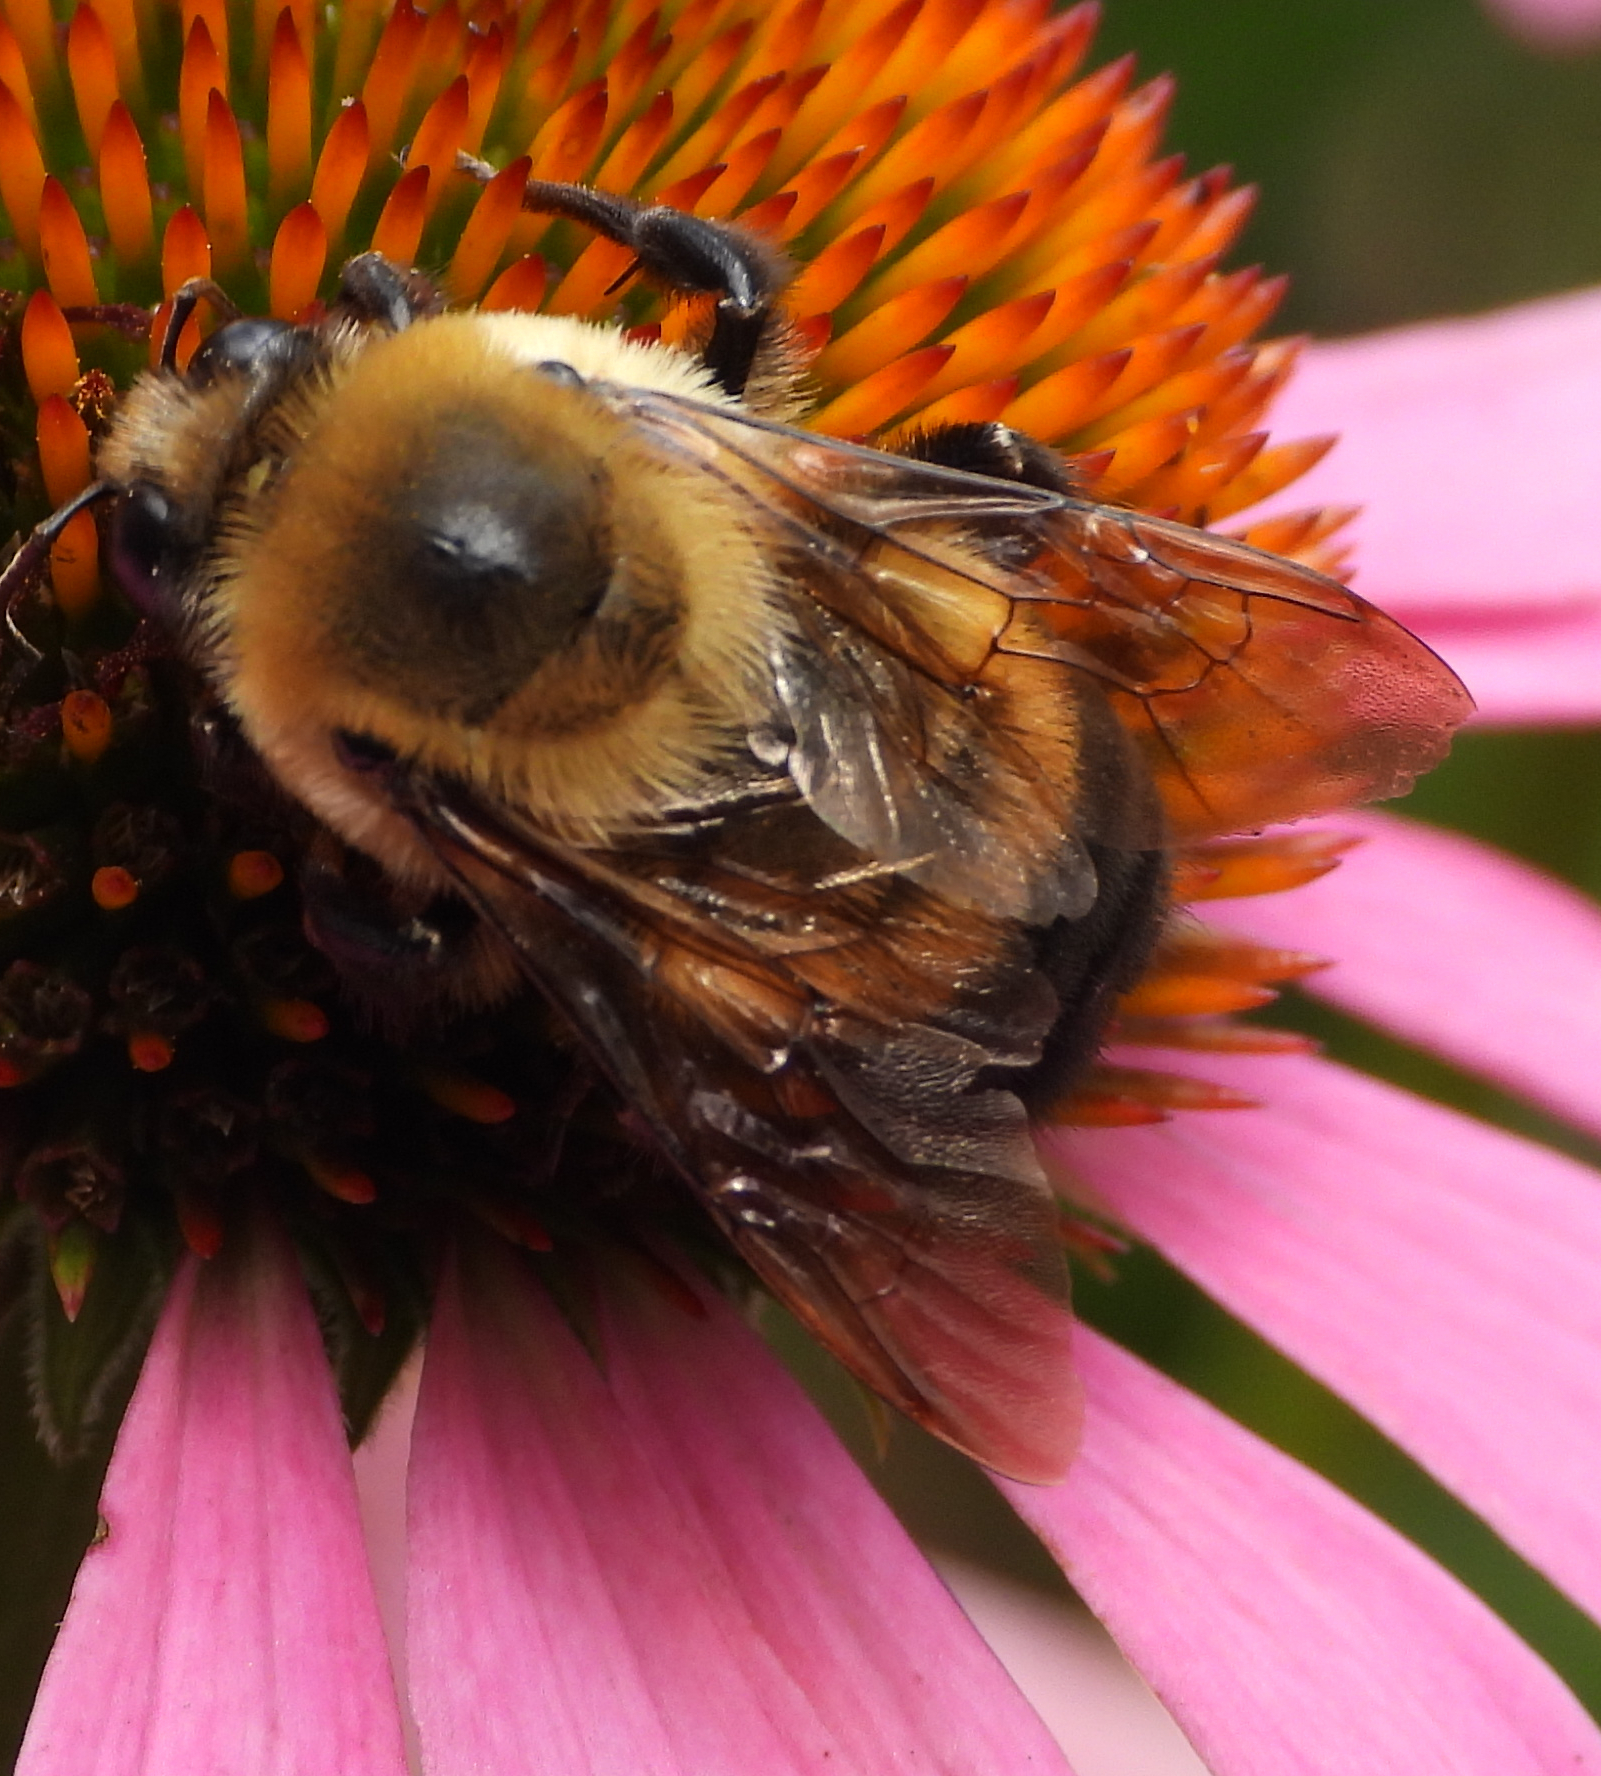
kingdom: Animalia
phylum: Arthropoda
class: Insecta
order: Hymenoptera
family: Apidae
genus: Bombus
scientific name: Bombus griseocollis
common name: Brown-belted bumble bee
